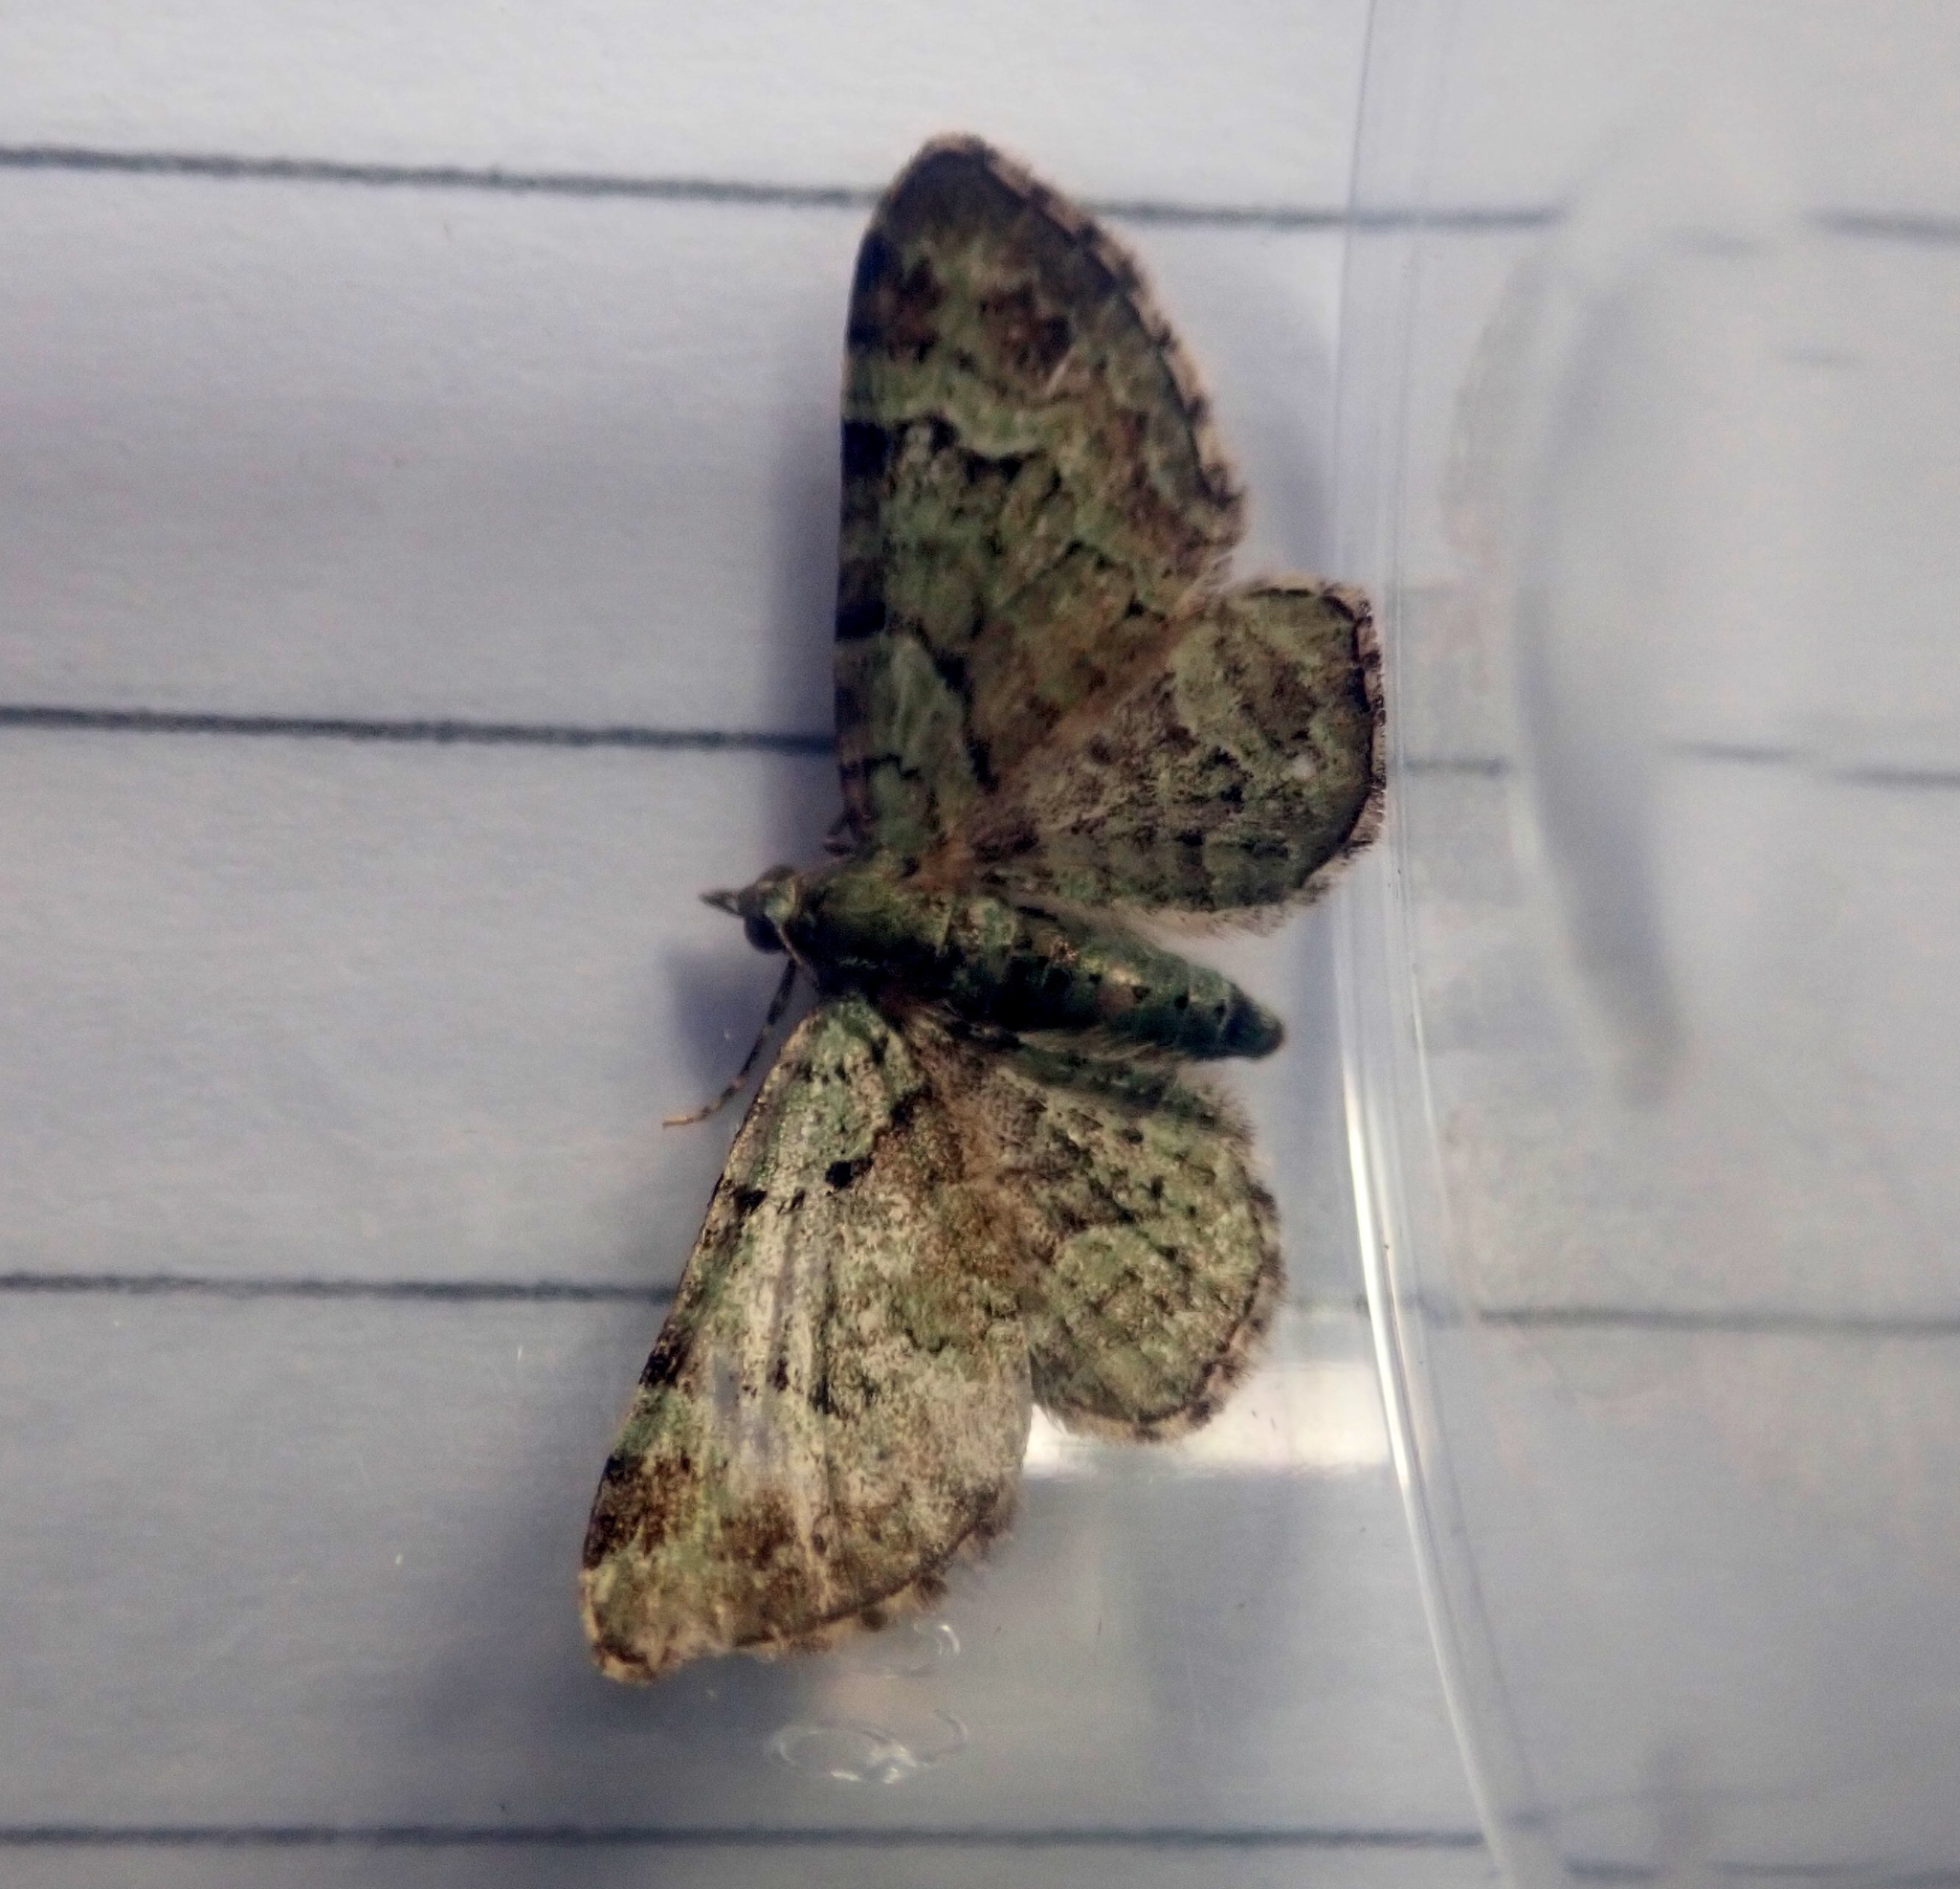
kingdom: Animalia
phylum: Arthropoda
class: Insecta
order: Lepidoptera
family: Geometridae
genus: Pasiphila
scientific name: Pasiphila rectangulata
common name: Green pug
